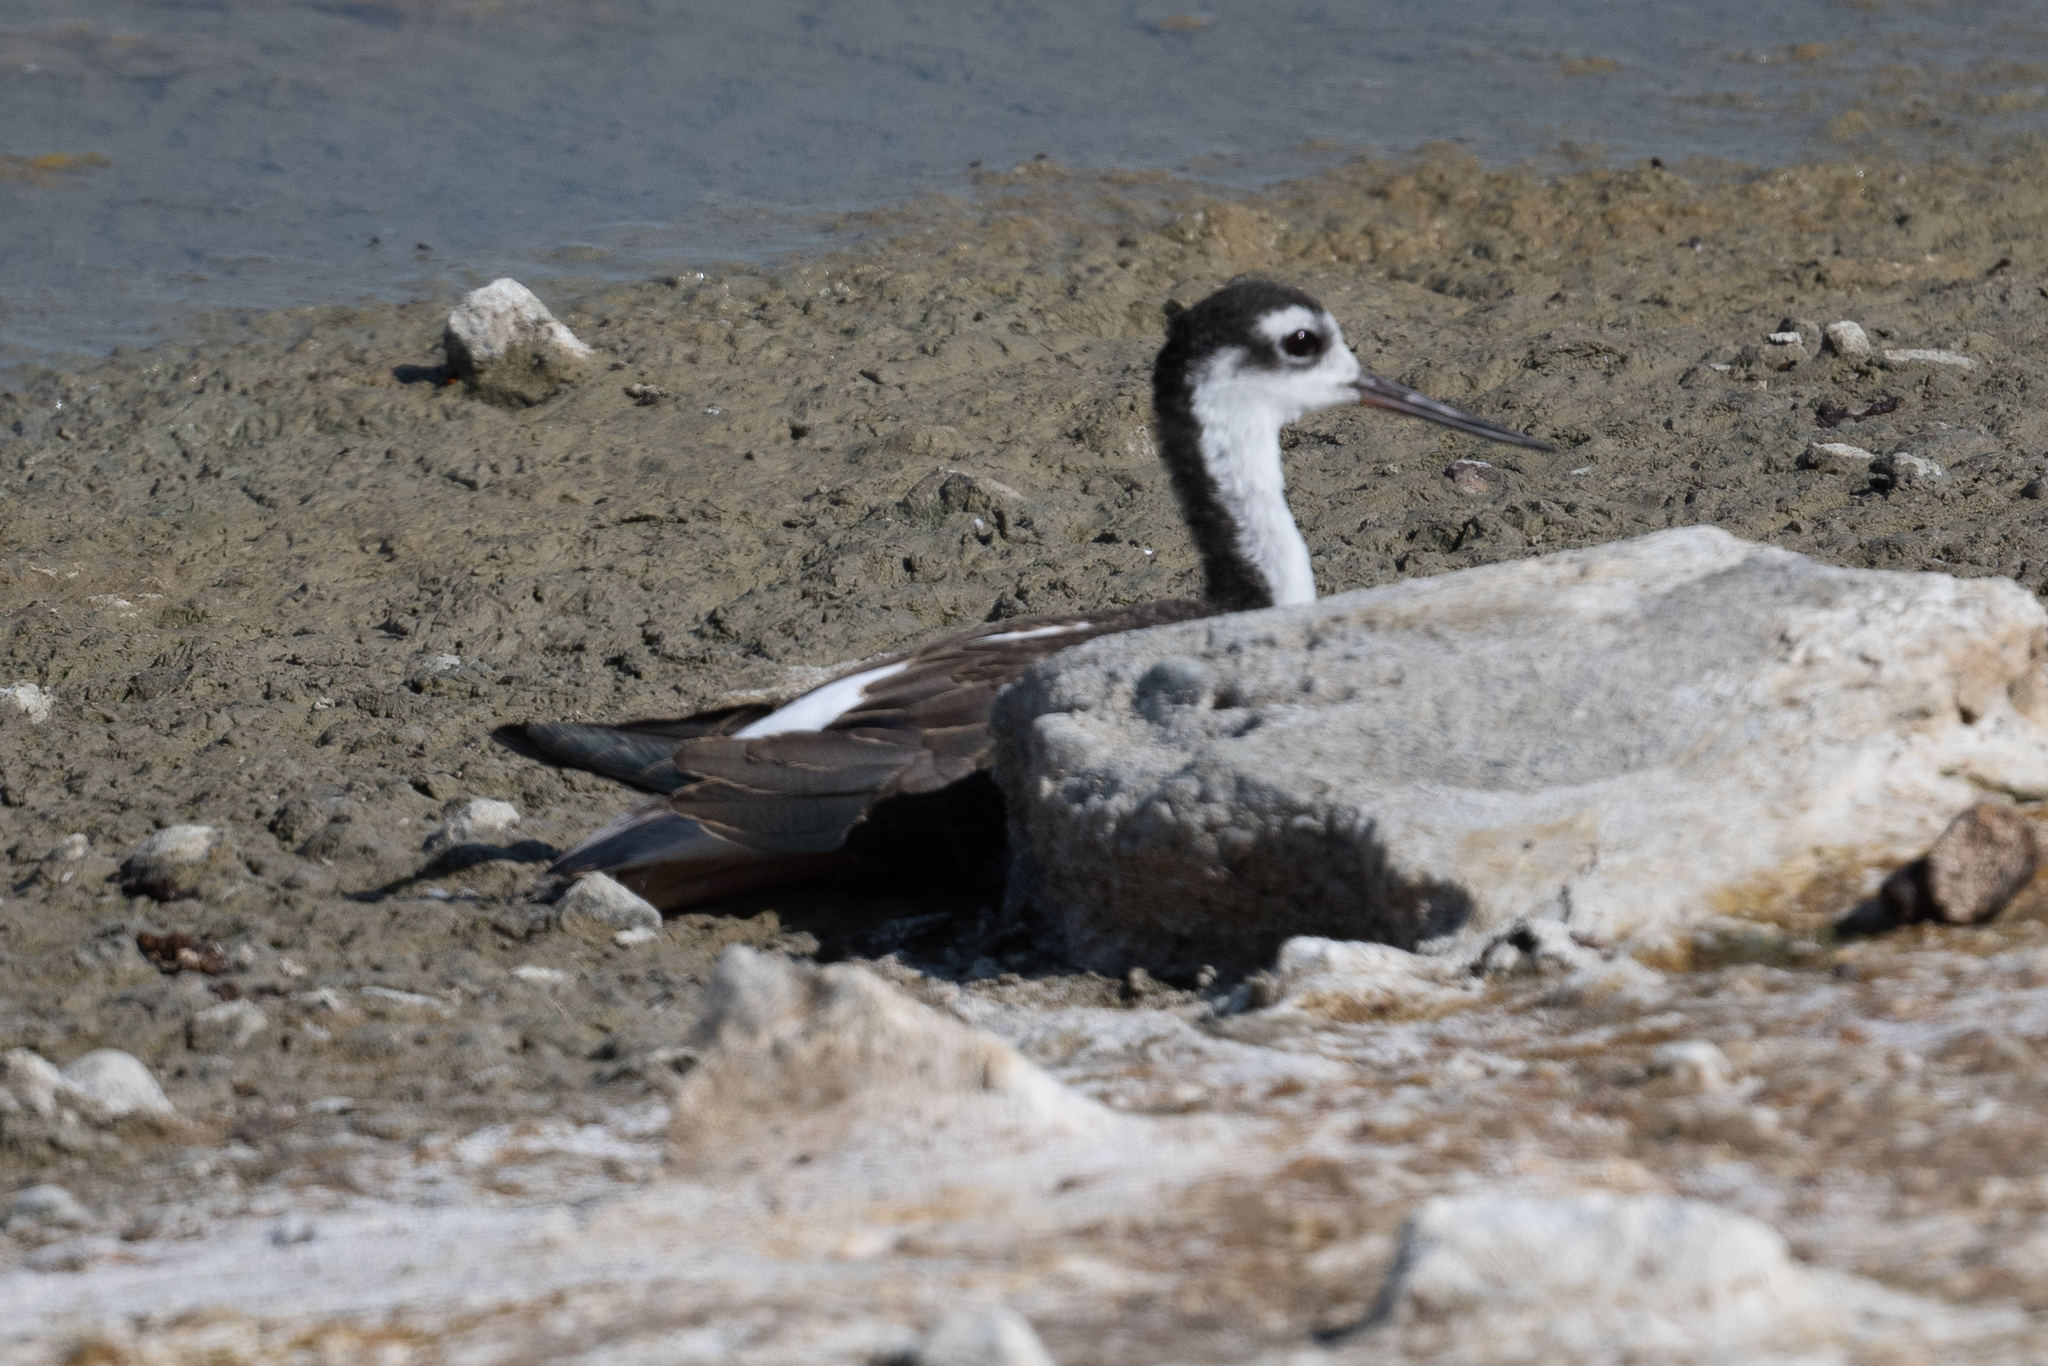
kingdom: Animalia
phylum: Chordata
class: Aves
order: Charadriiformes
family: Recurvirostridae
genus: Himantopus
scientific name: Himantopus mexicanus
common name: Black-necked stilt
